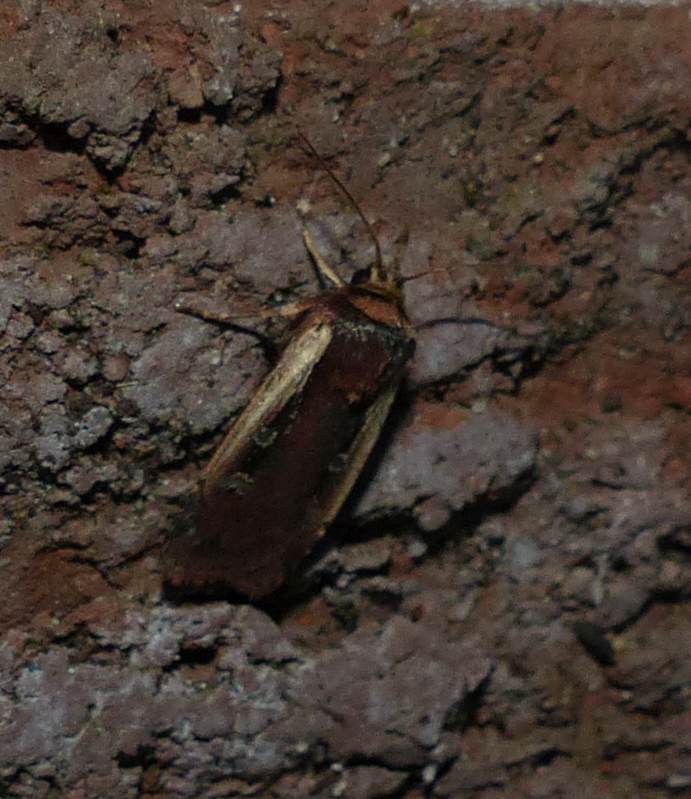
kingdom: Animalia
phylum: Arthropoda
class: Insecta
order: Lepidoptera
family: Noctuidae
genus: Ochropleura
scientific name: Ochropleura implecta
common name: Flame-shouldered dart
